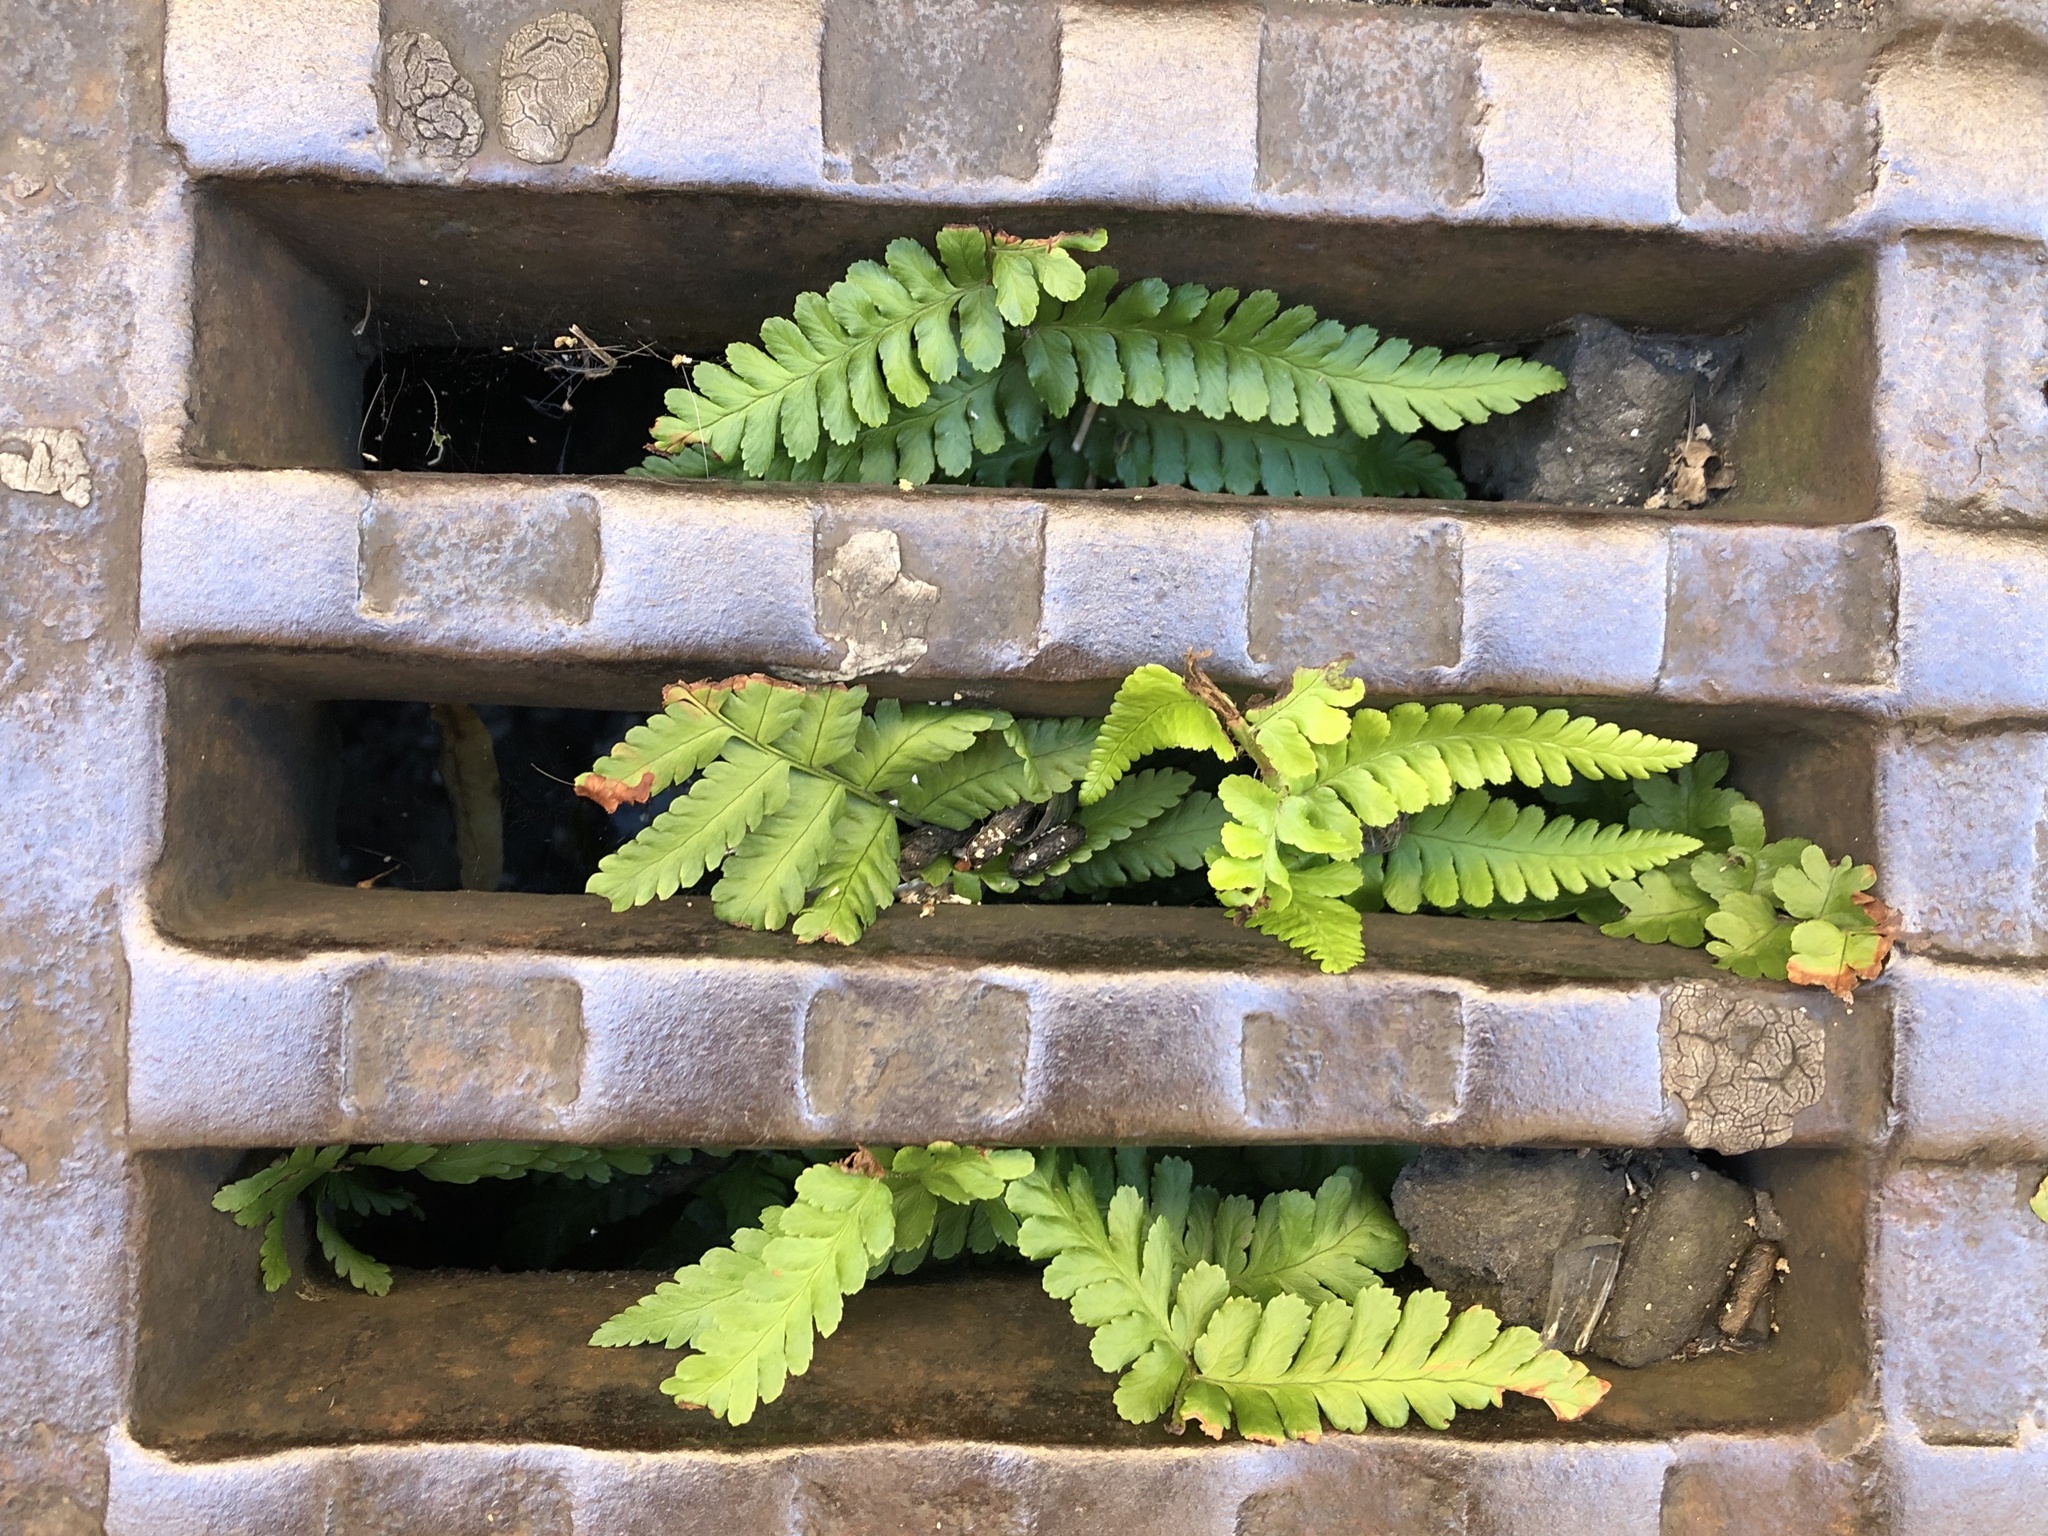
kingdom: Plantae
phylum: Tracheophyta
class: Polypodiopsida
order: Polypodiales
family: Dryopteridaceae
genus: Dryopteris
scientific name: Dryopteris filix-mas
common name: Male fern
